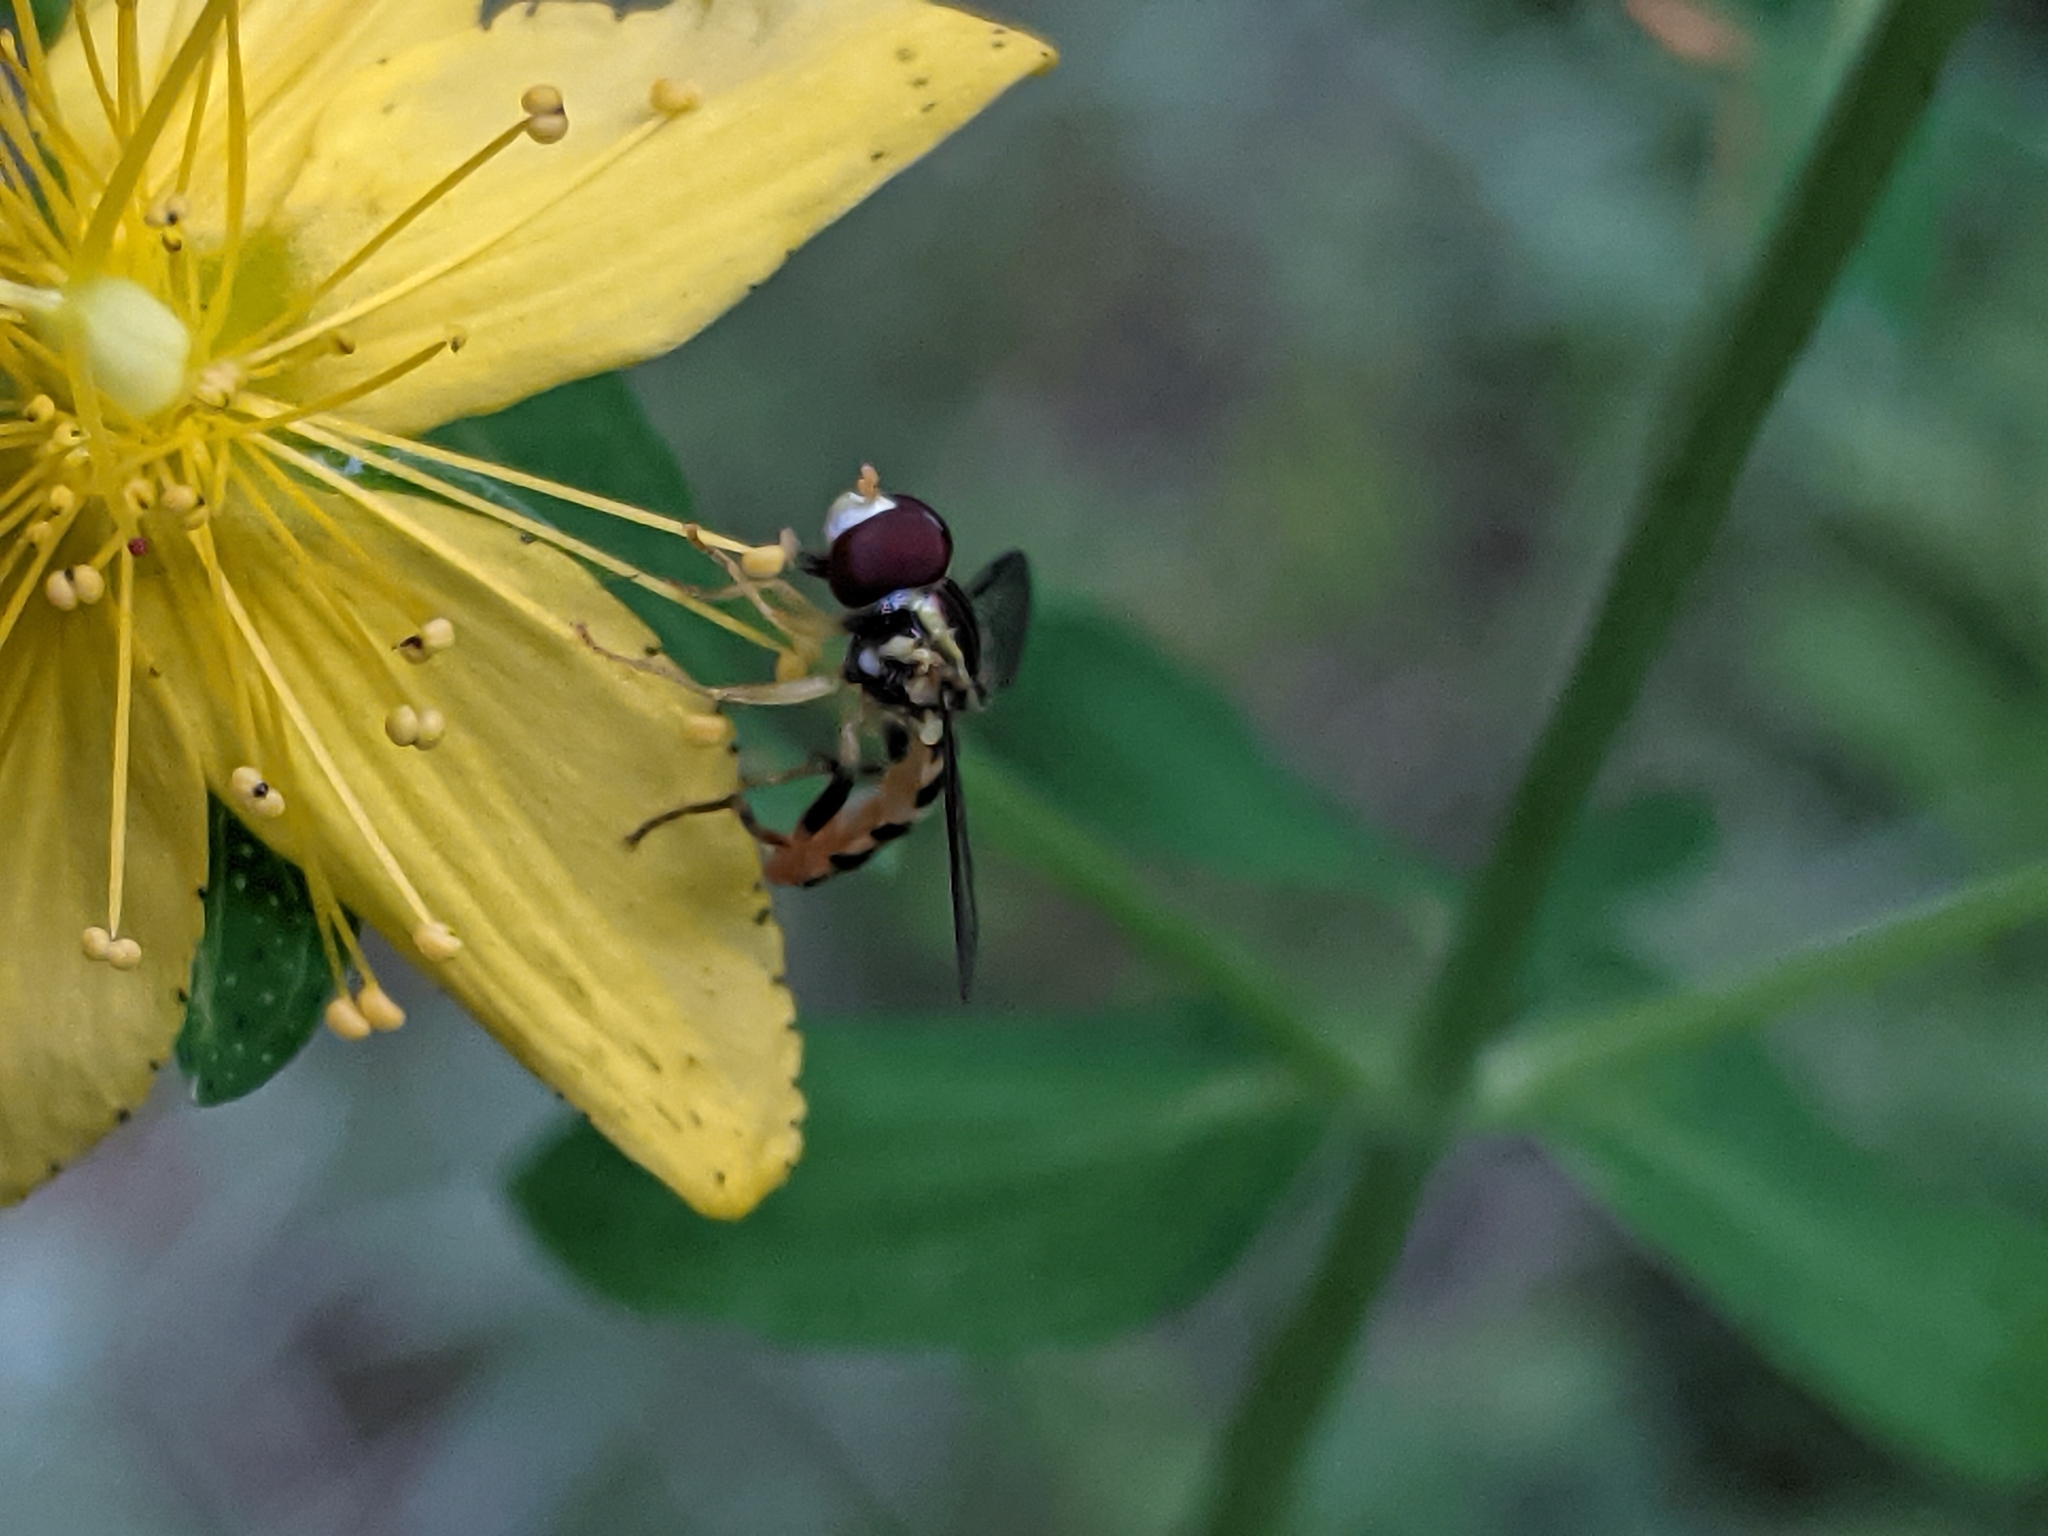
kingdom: Animalia
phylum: Arthropoda
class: Insecta
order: Diptera
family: Syrphidae
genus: Toxomerus
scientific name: Toxomerus geminatus
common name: Eastern calligrapher
